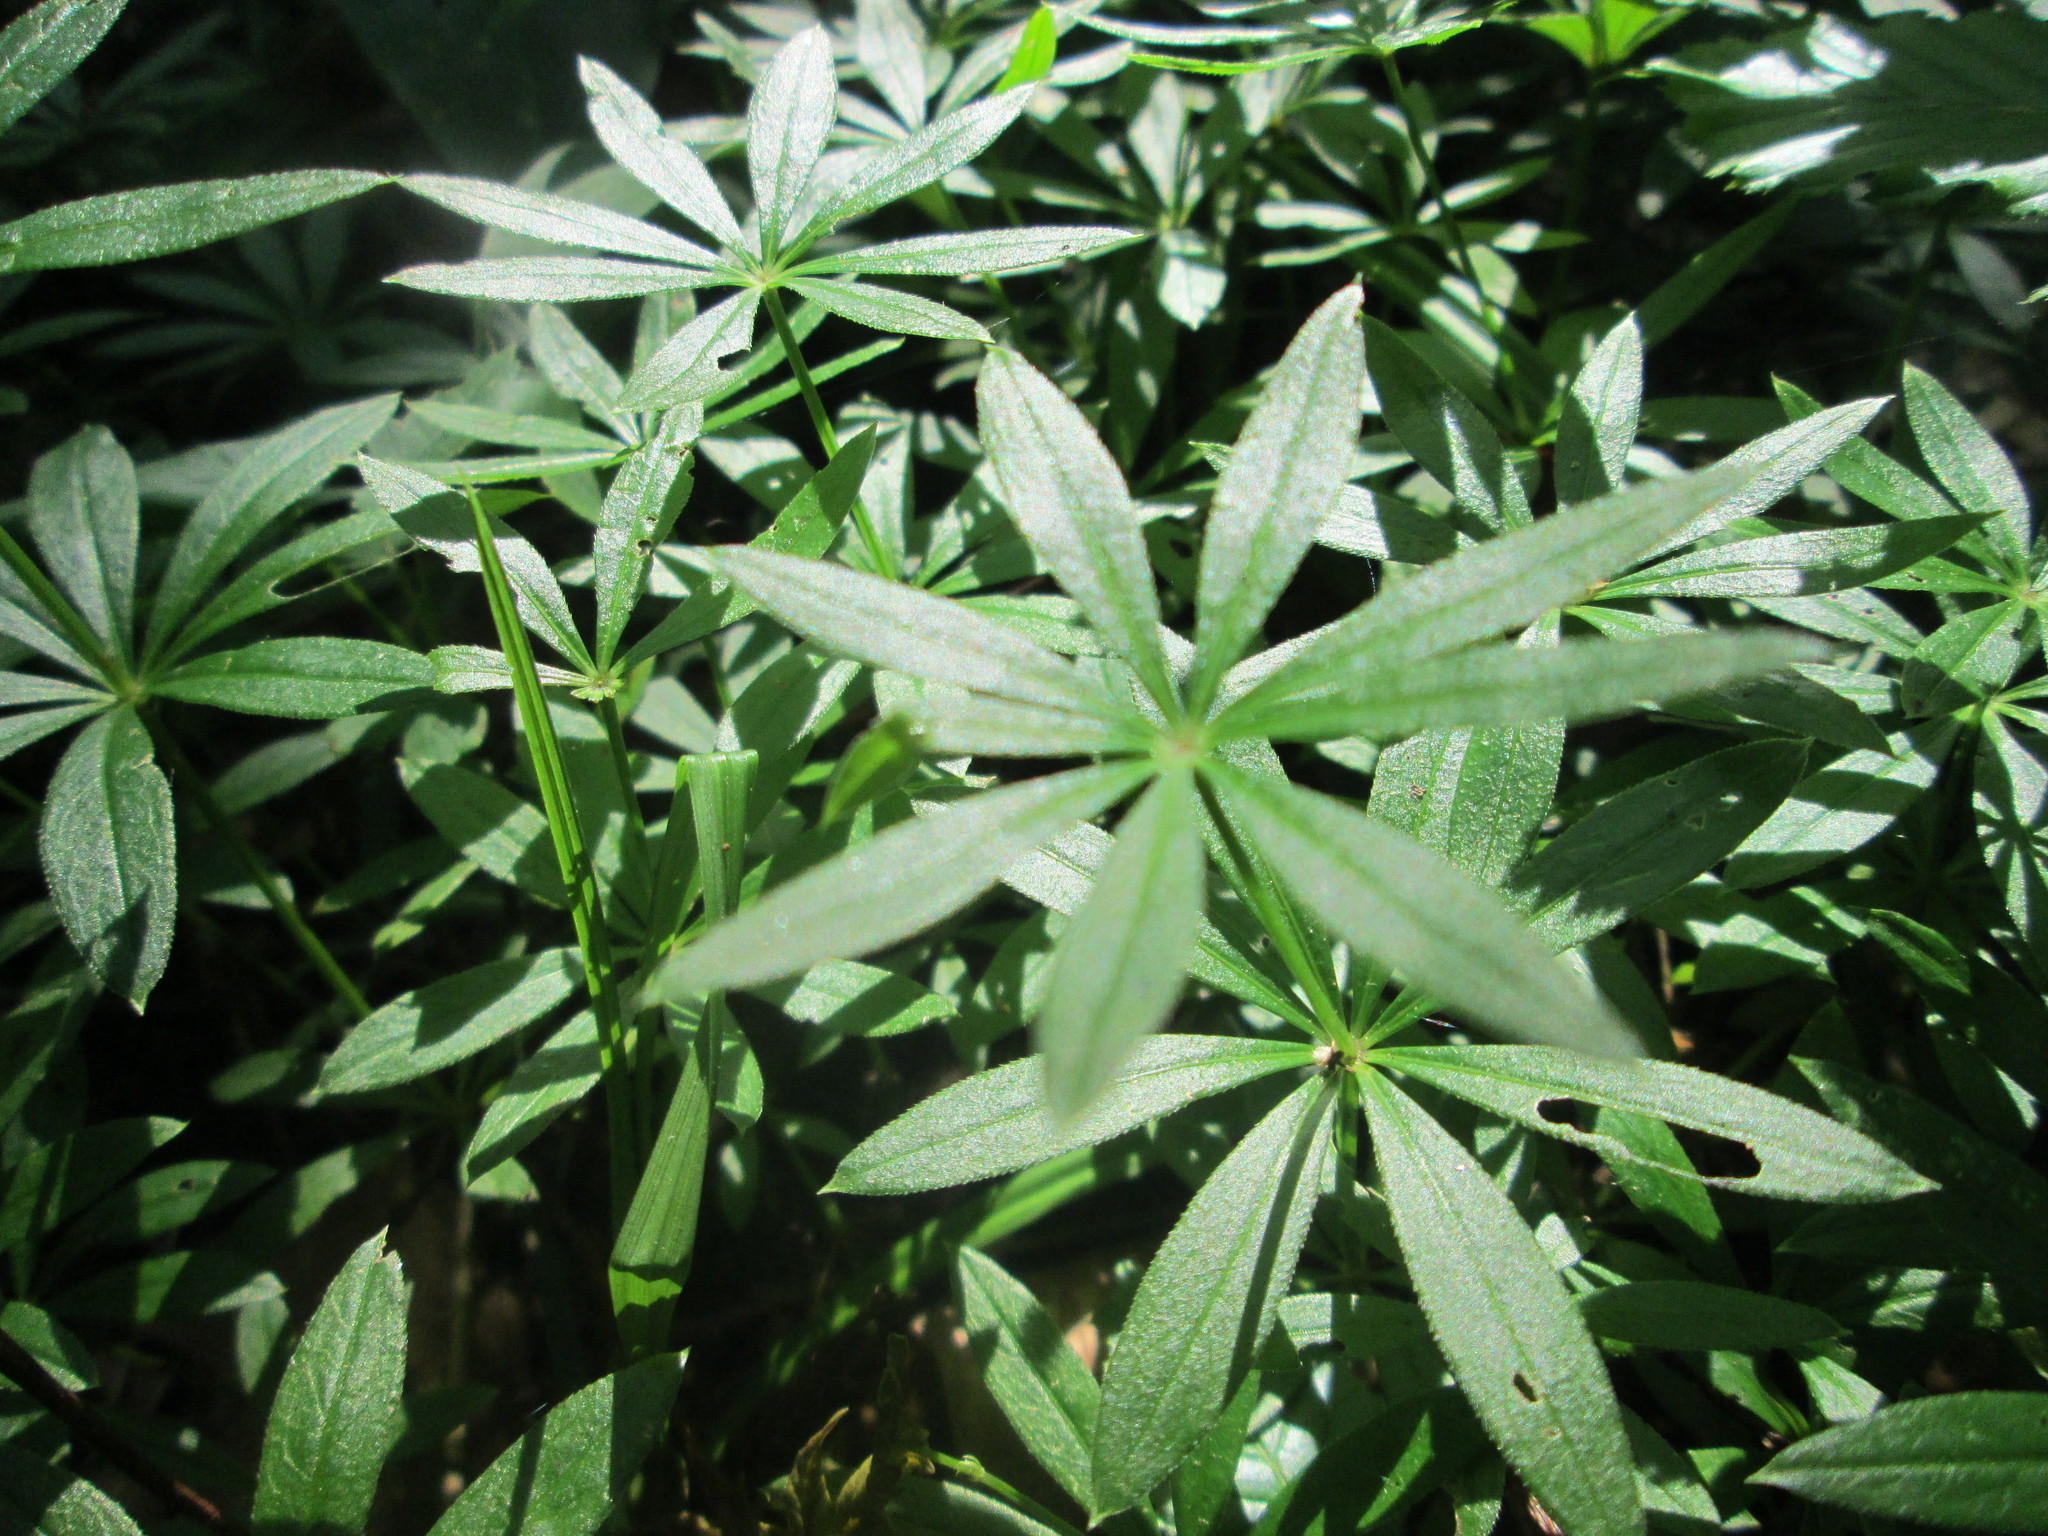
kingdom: Plantae
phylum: Tracheophyta
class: Magnoliopsida
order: Gentianales
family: Rubiaceae
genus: Galium
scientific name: Galium odoratum
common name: Sweet woodruff
